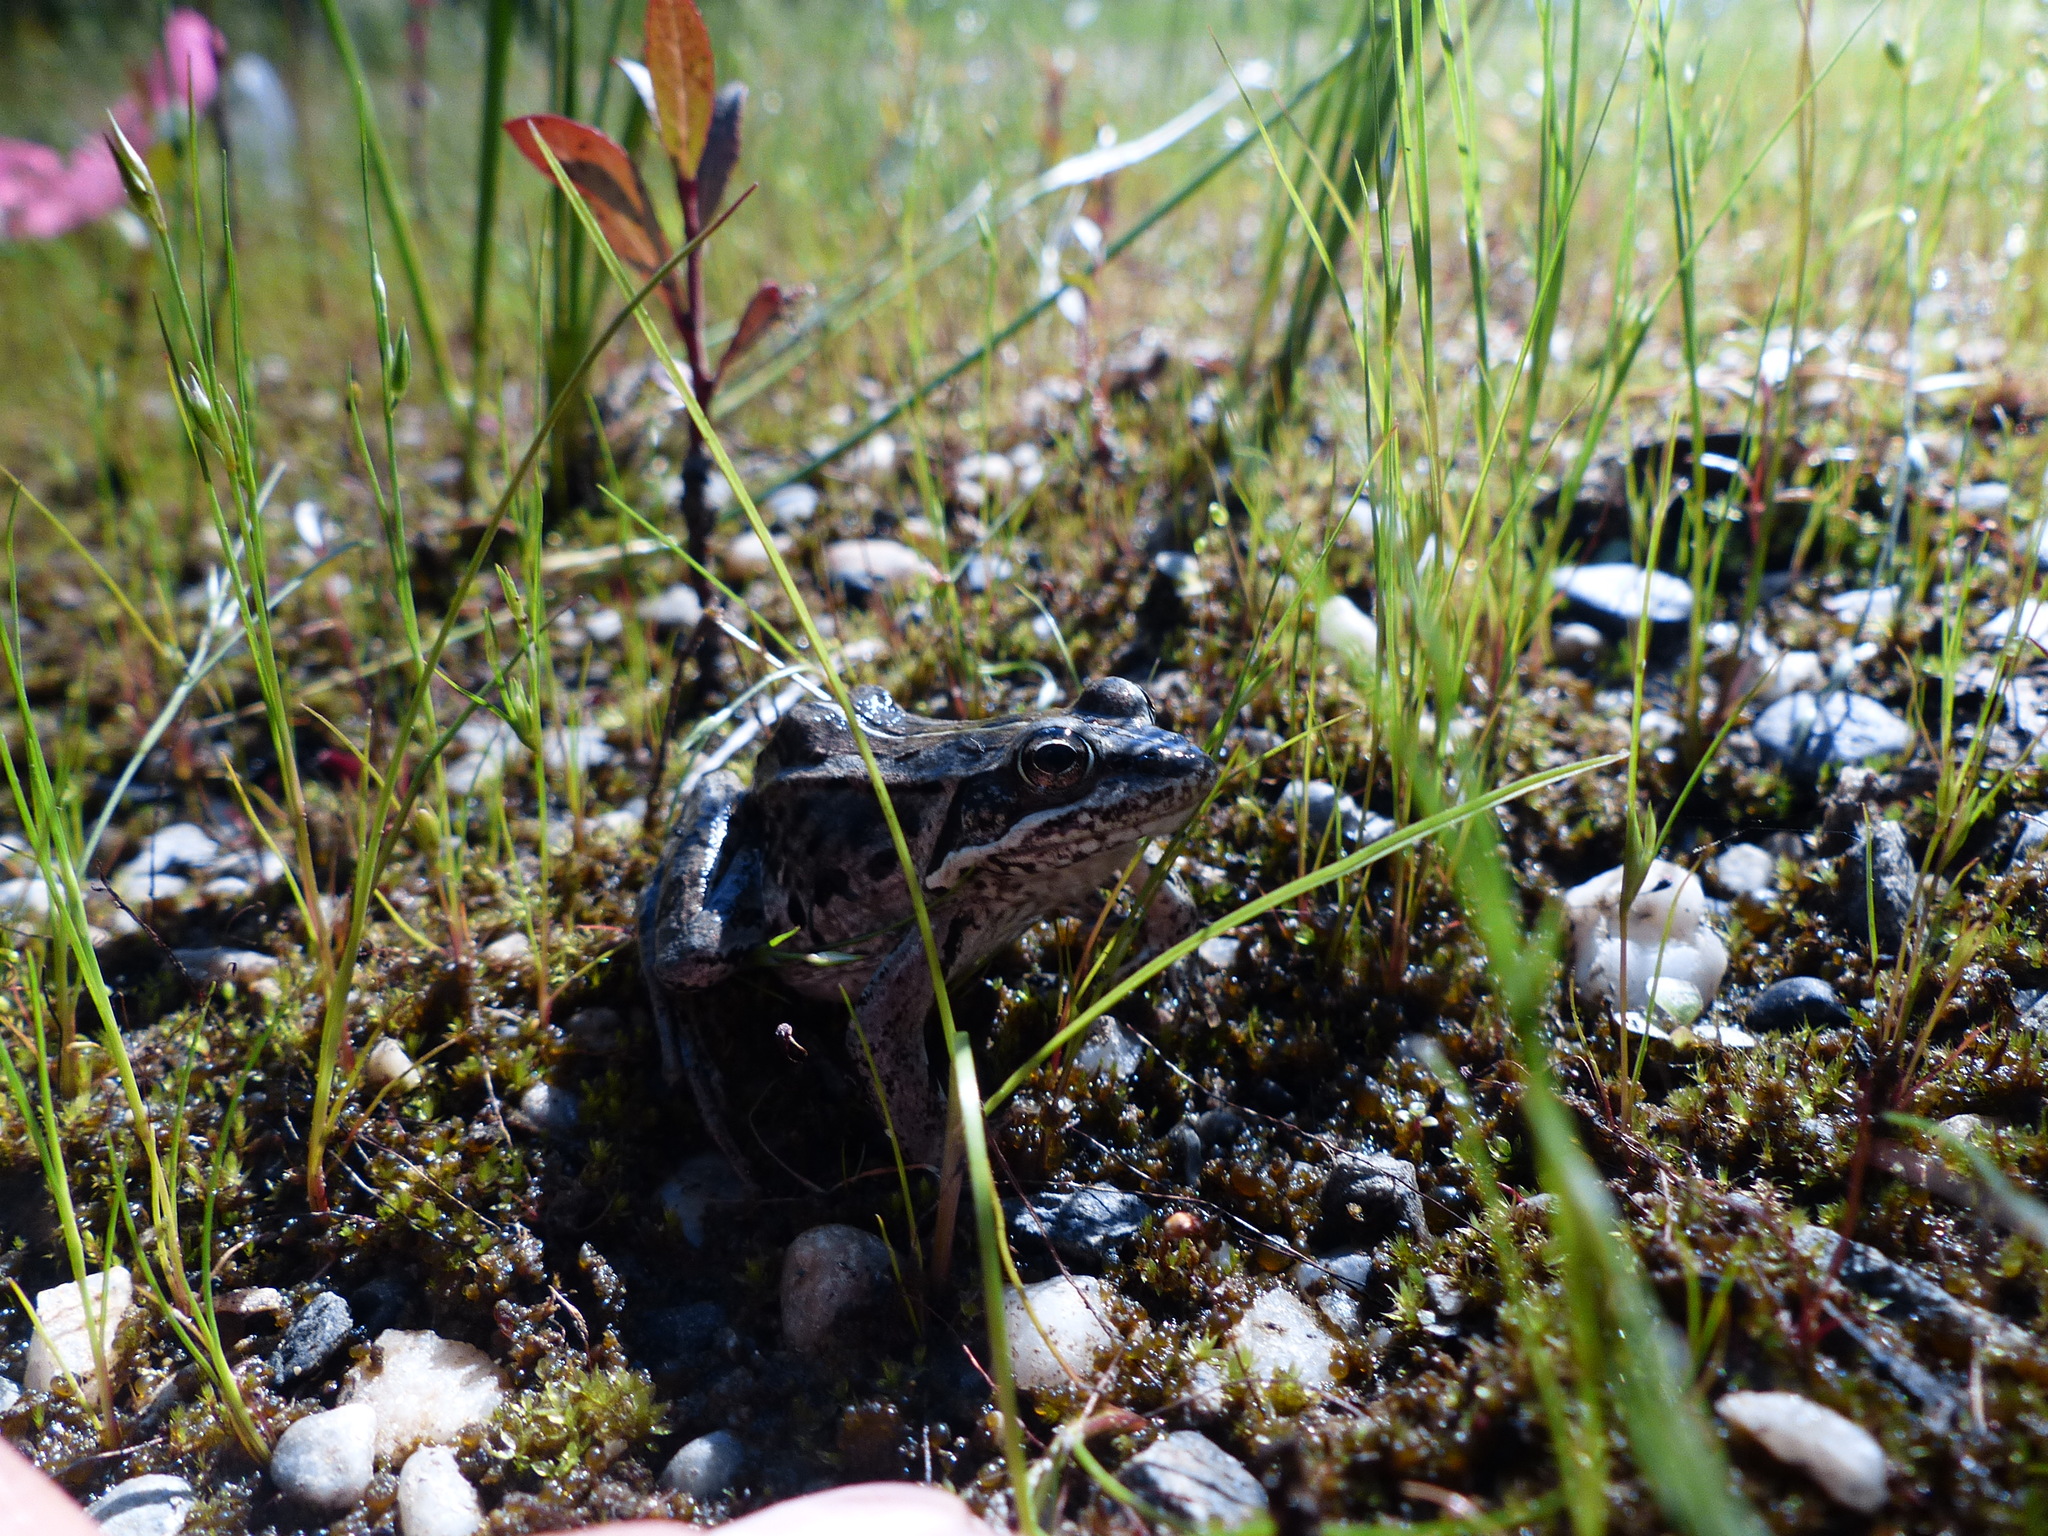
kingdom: Animalia
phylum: Chordata
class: Amphibia
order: Anura
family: Ranidae
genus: Lithobates
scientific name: Lithobates sylvaticus
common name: Wood frog
